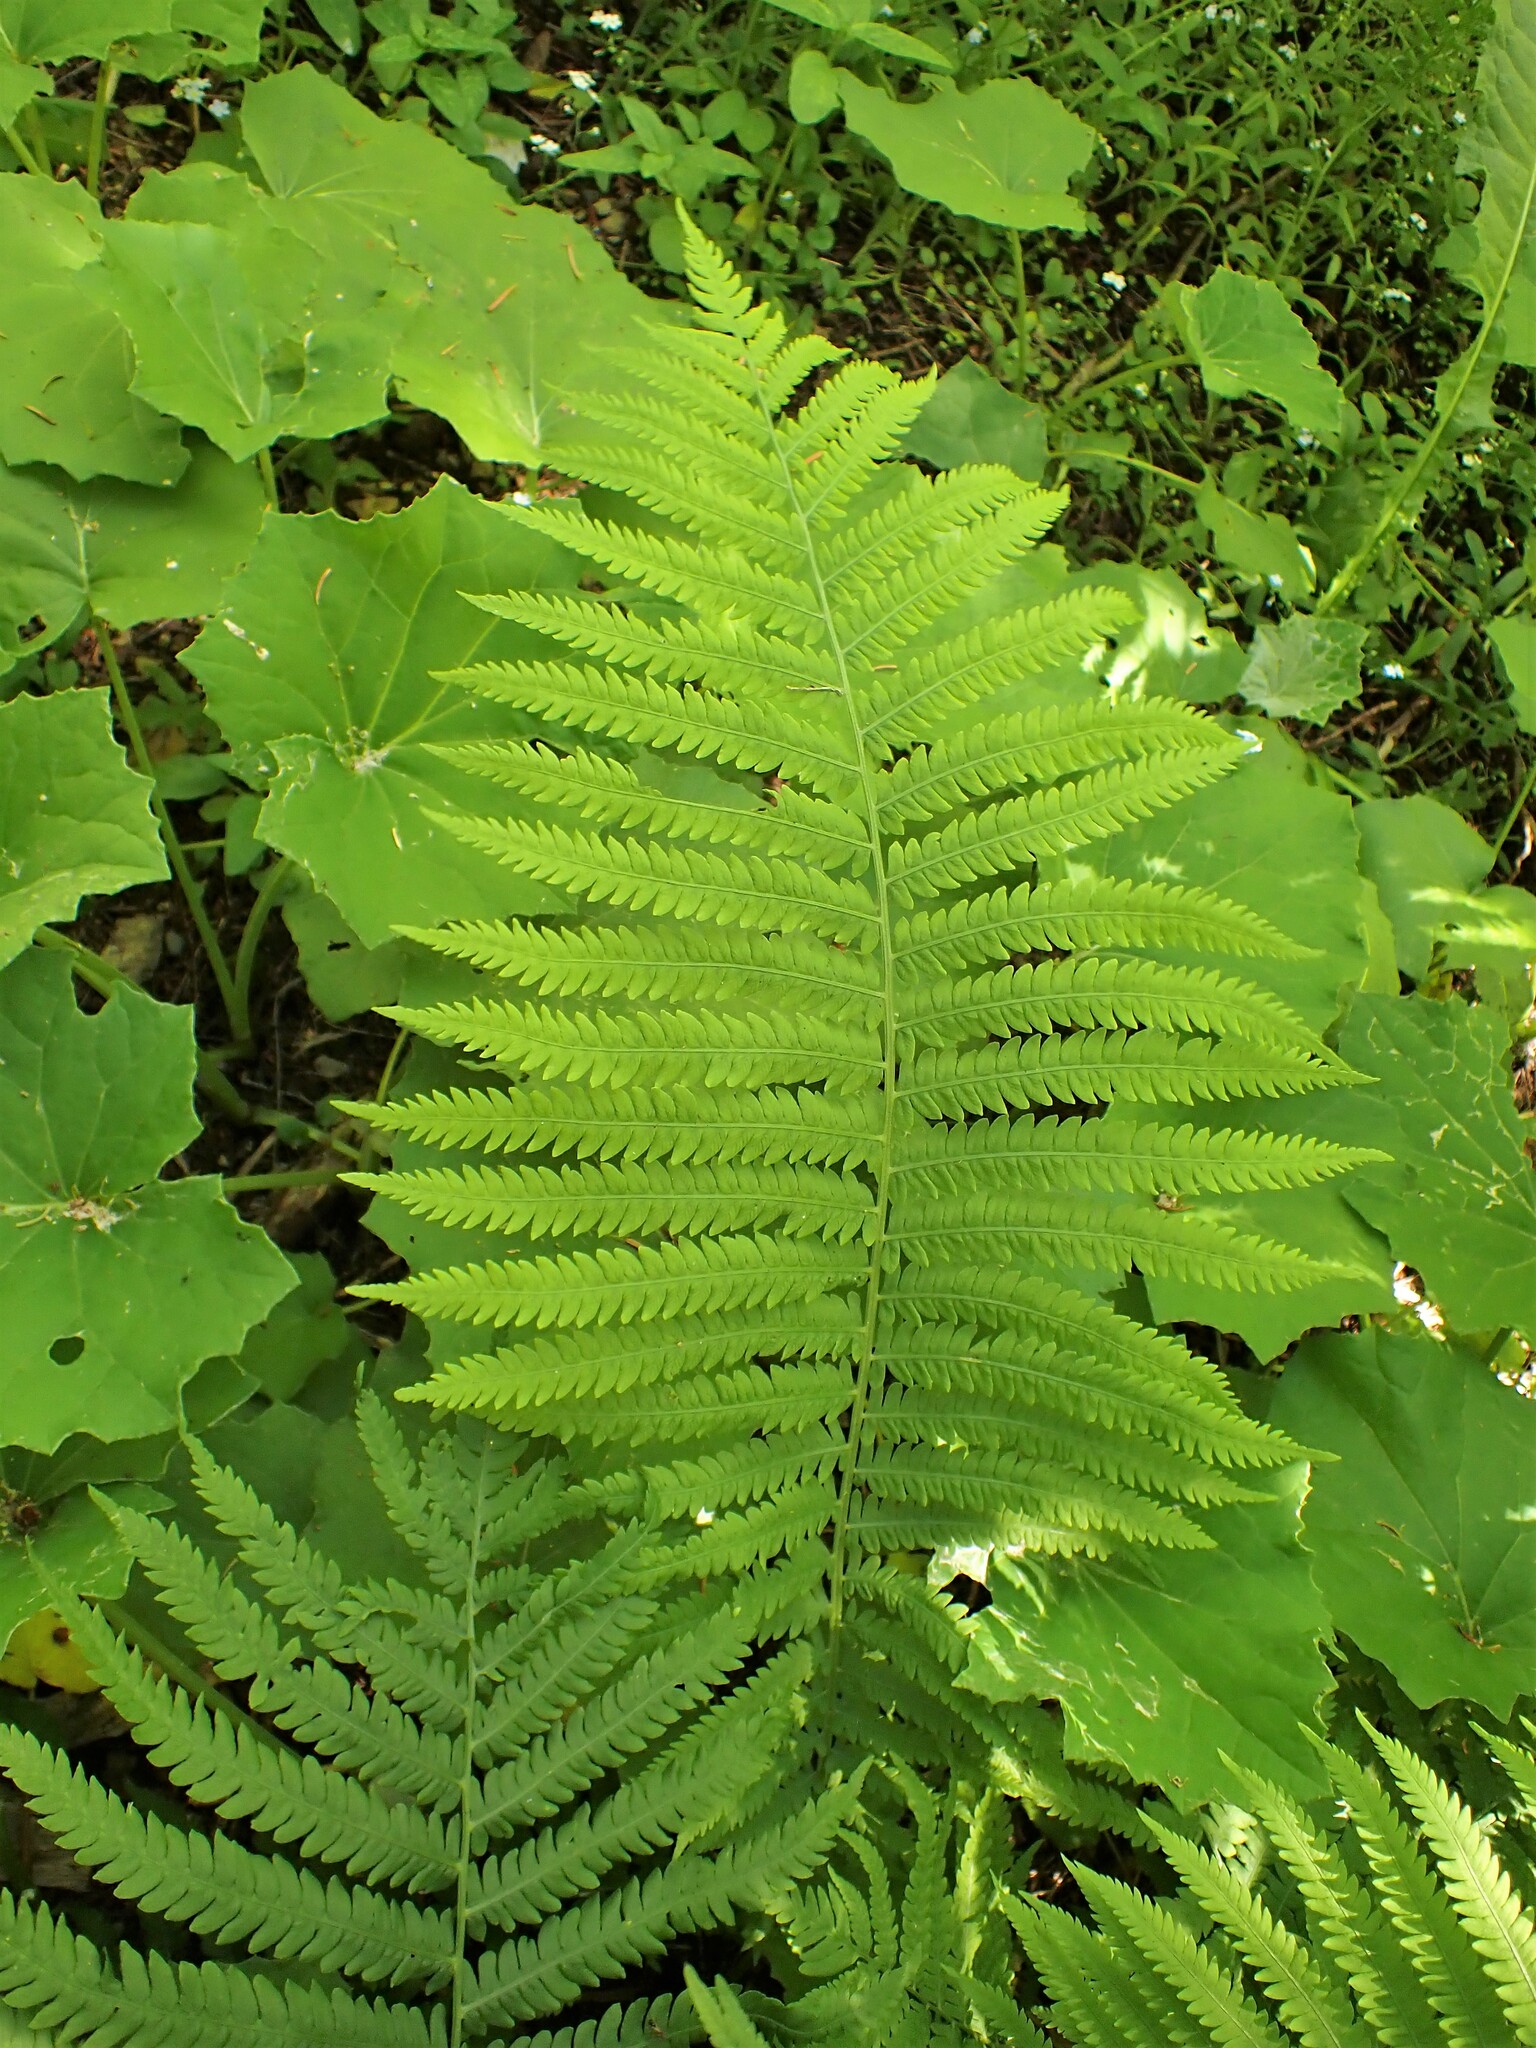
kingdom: Plantae
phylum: Tracheophyta
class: Polypodiopsida
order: Polypodiales
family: Onocleaceae
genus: Matteuccia
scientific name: Matteuccia struthiopteris
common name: Ostrich fern
